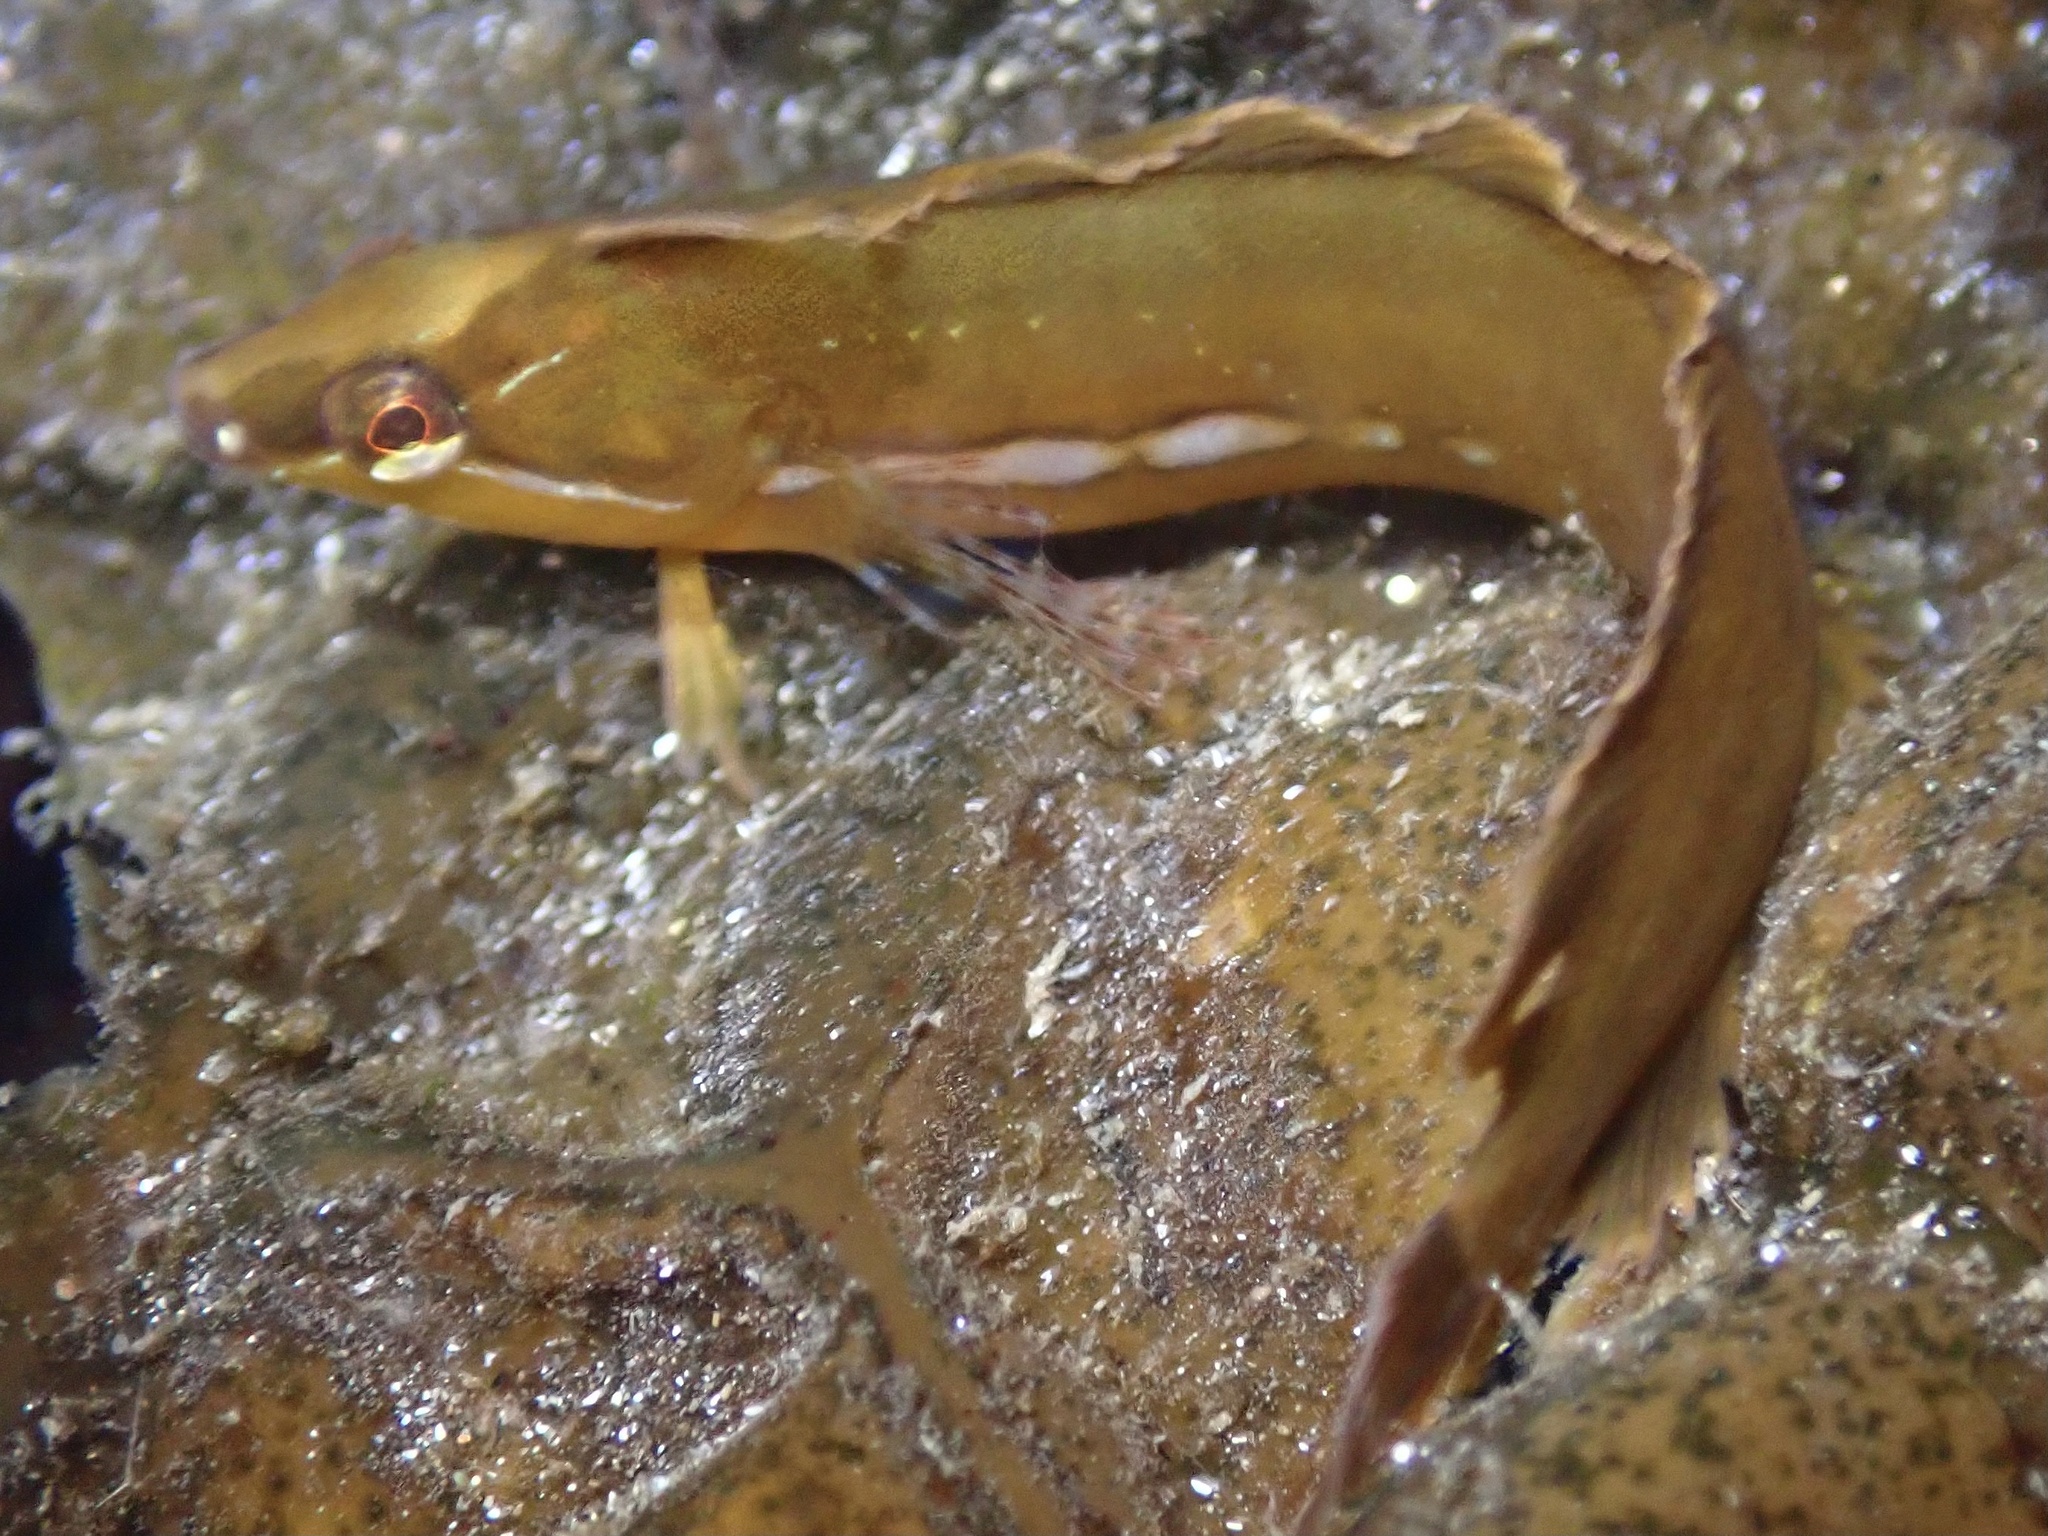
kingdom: Animalia
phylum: Chordata
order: Perciformes
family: Clinidae
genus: Gibbonsia
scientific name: Gibbonsia metzi
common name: Striped kelpfish
